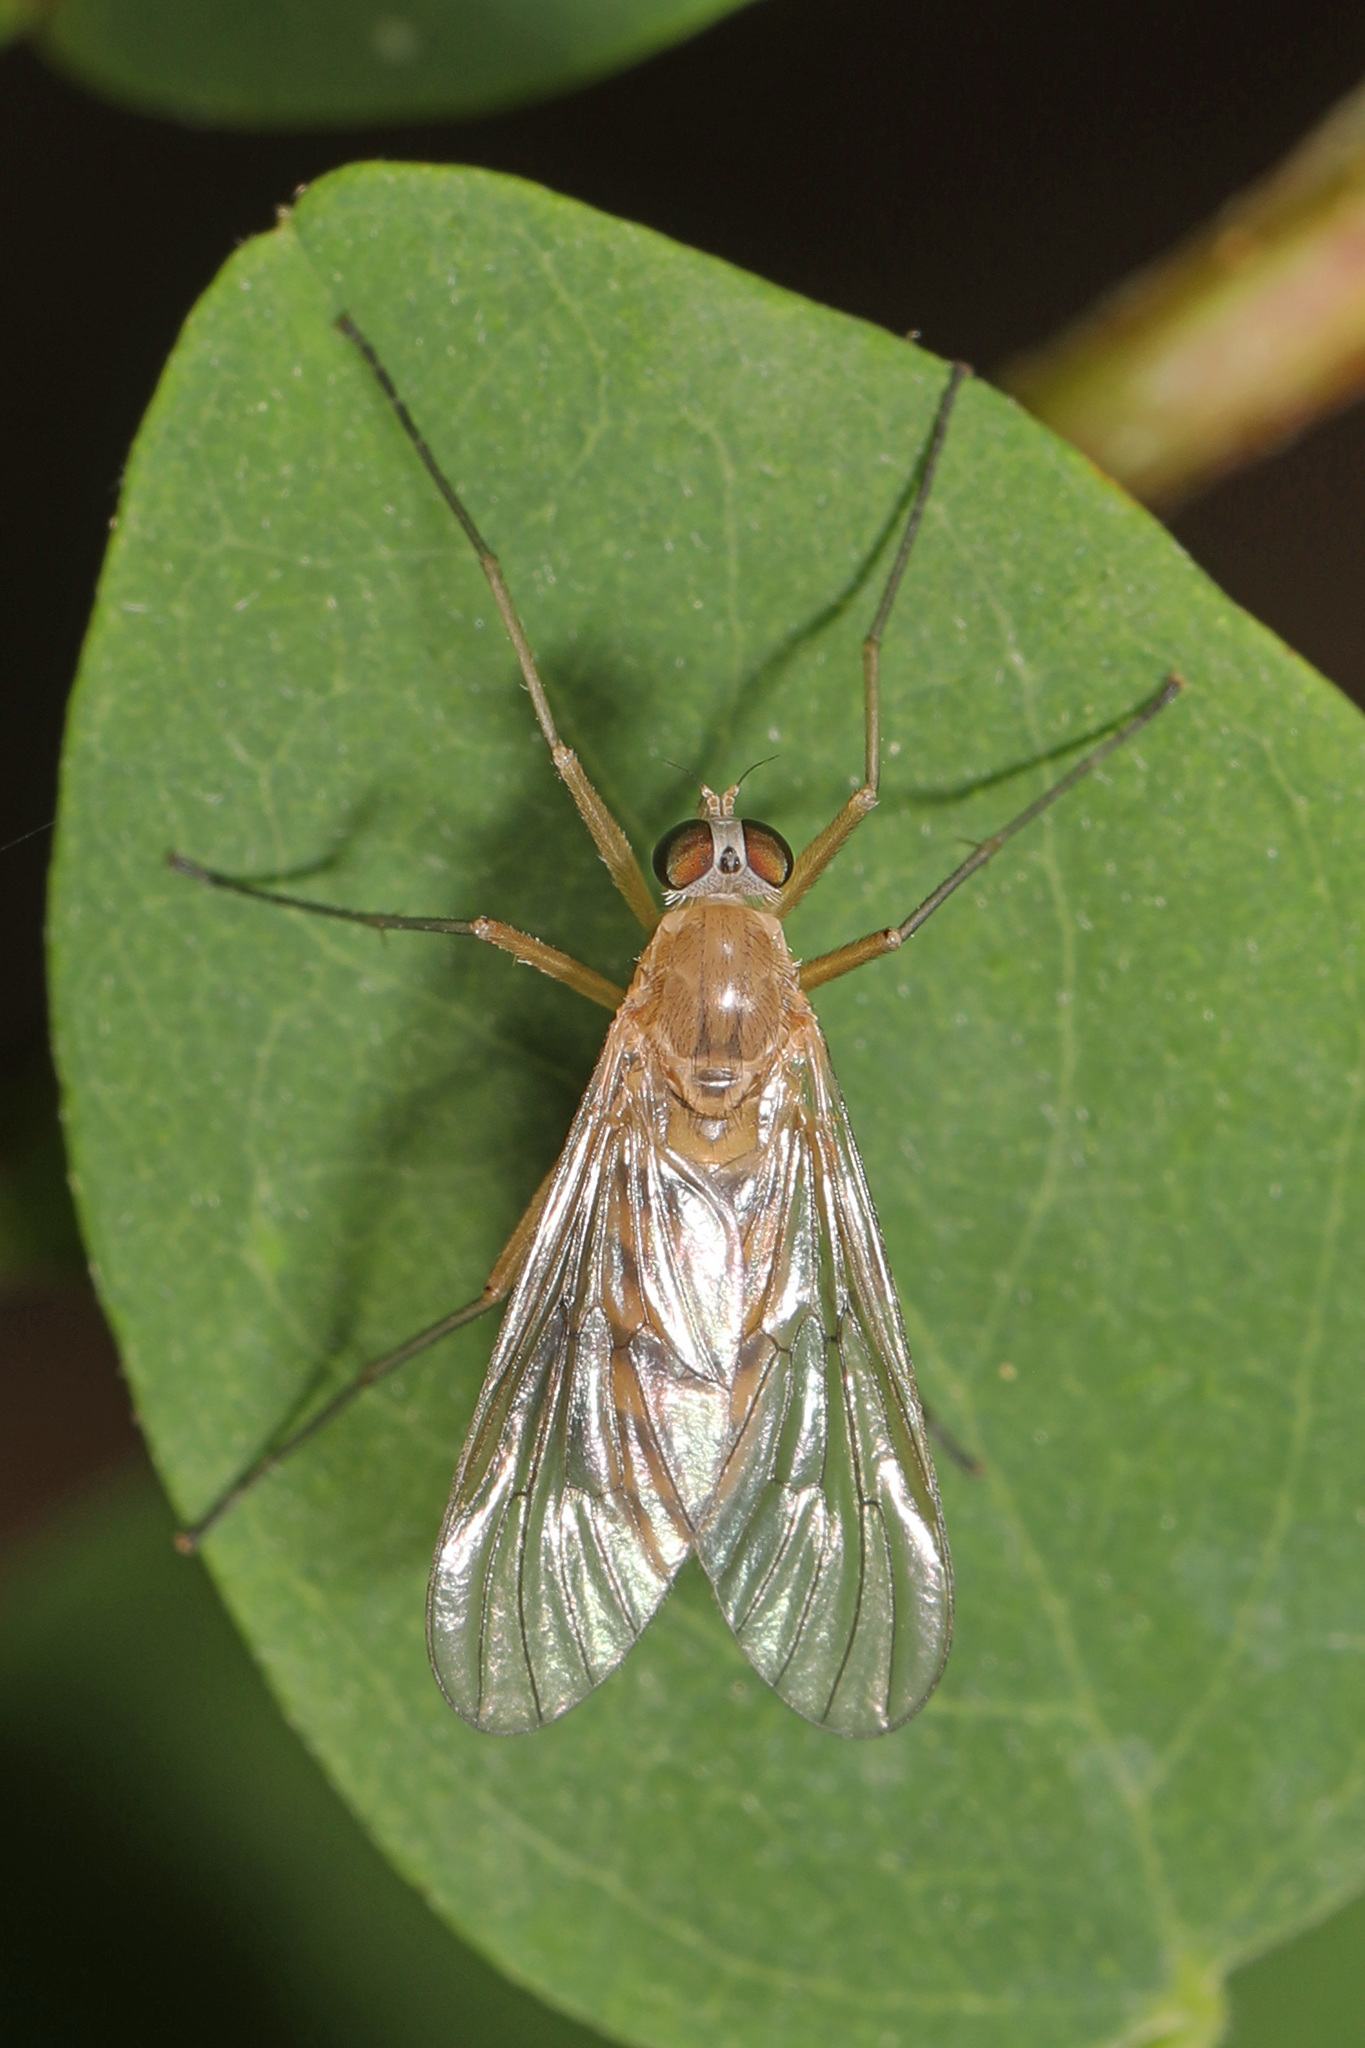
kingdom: Animalia
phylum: Arthropoda
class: Insecta
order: Diptera
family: Rhagionidae
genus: Rhagio
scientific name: Rhagio gracilis
